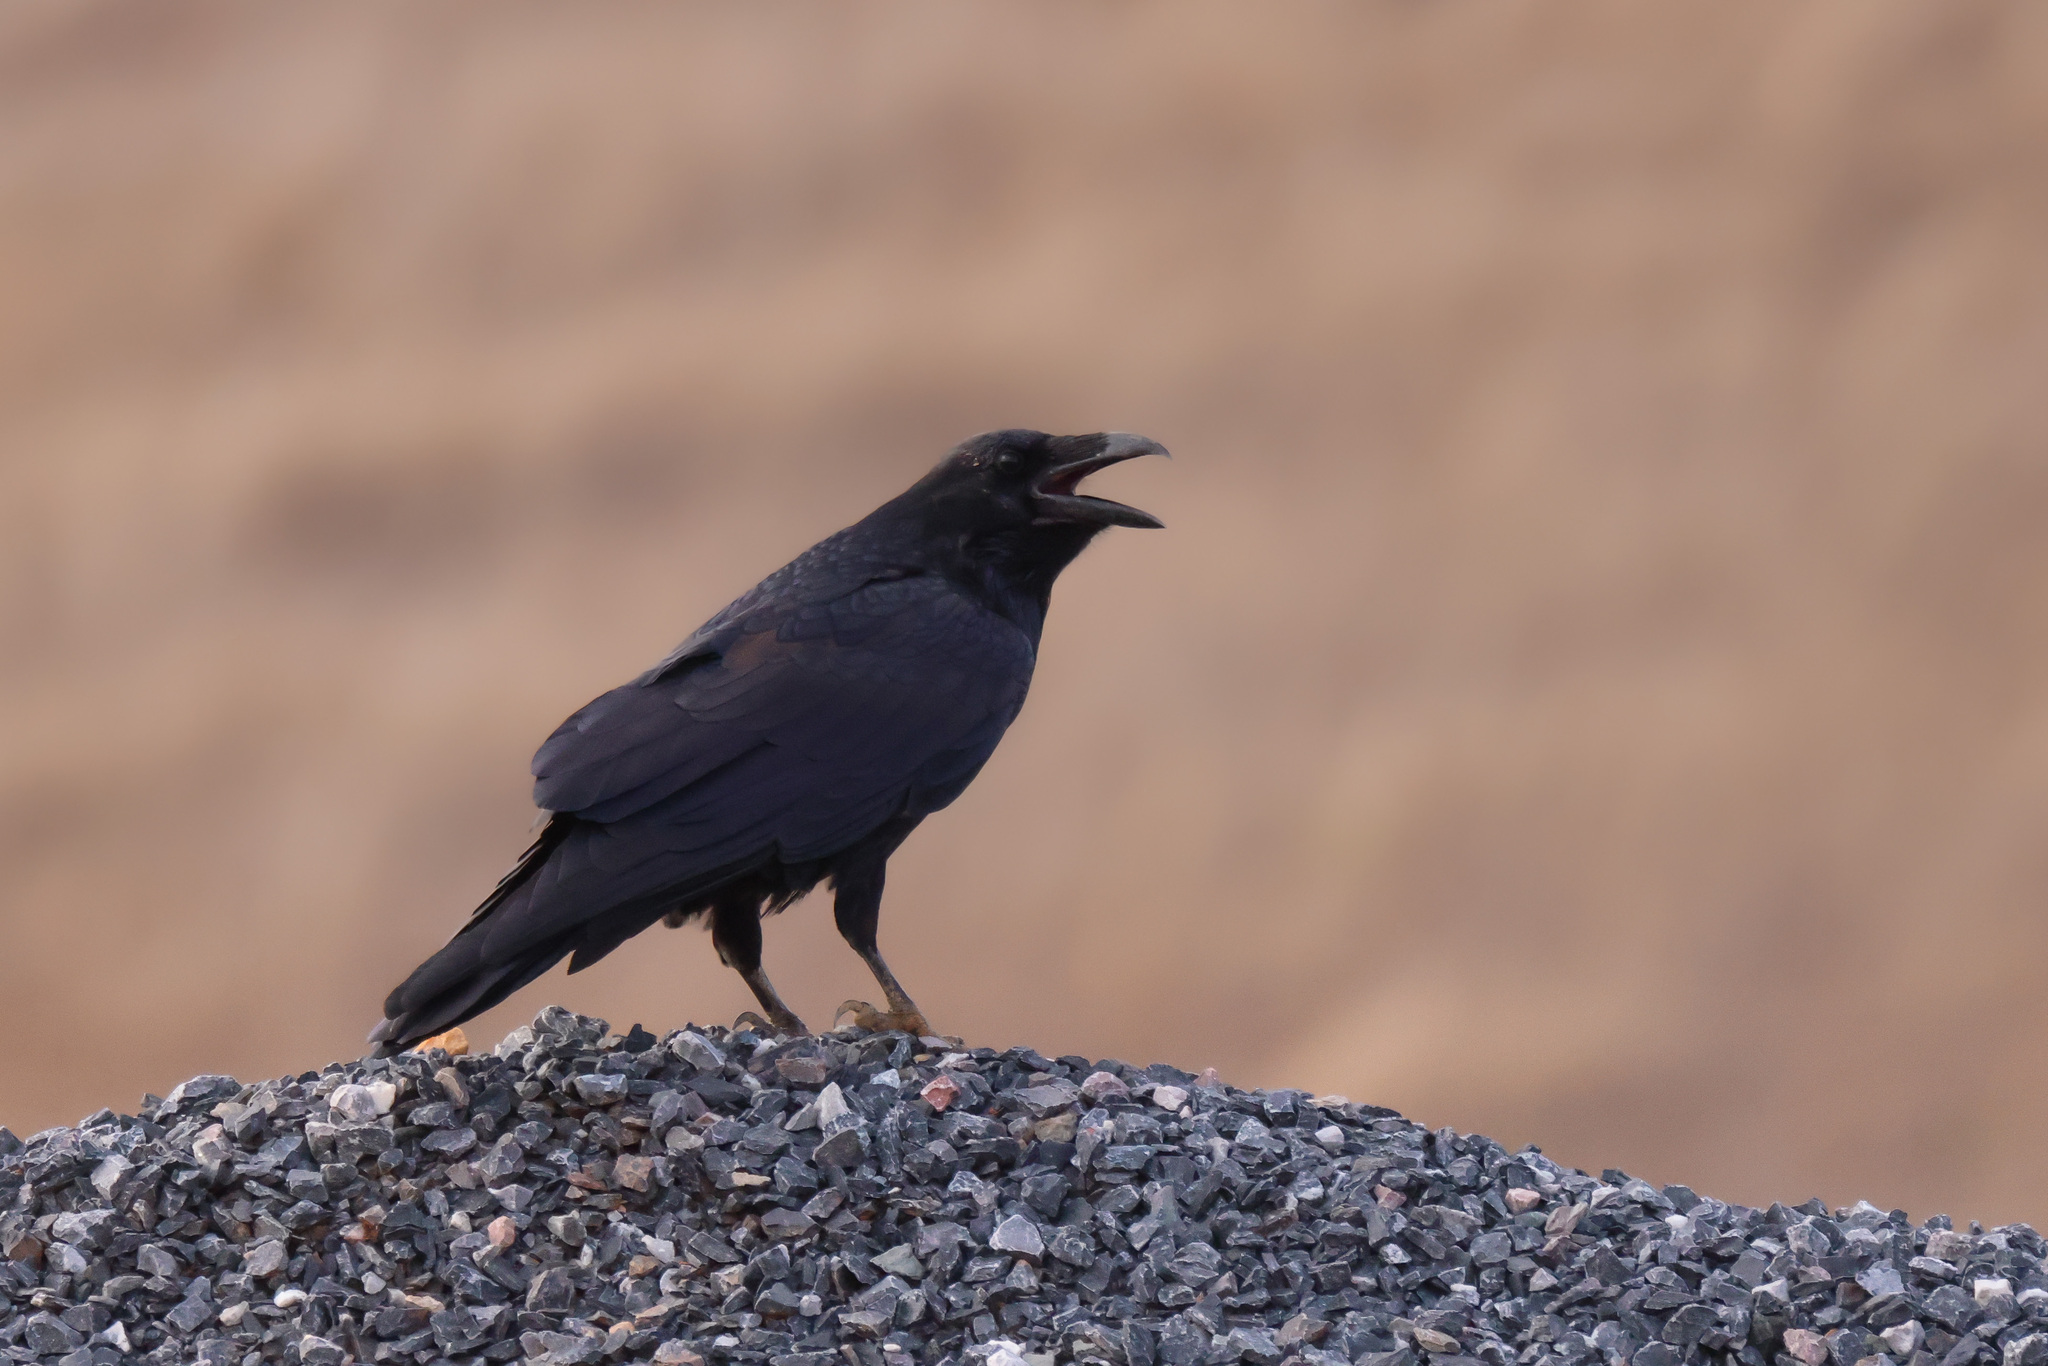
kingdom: Animalia
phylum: Chordata
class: Aves
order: Passeriformes
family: Corvidae
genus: Corvus
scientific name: Corvus corax
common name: Common raven
